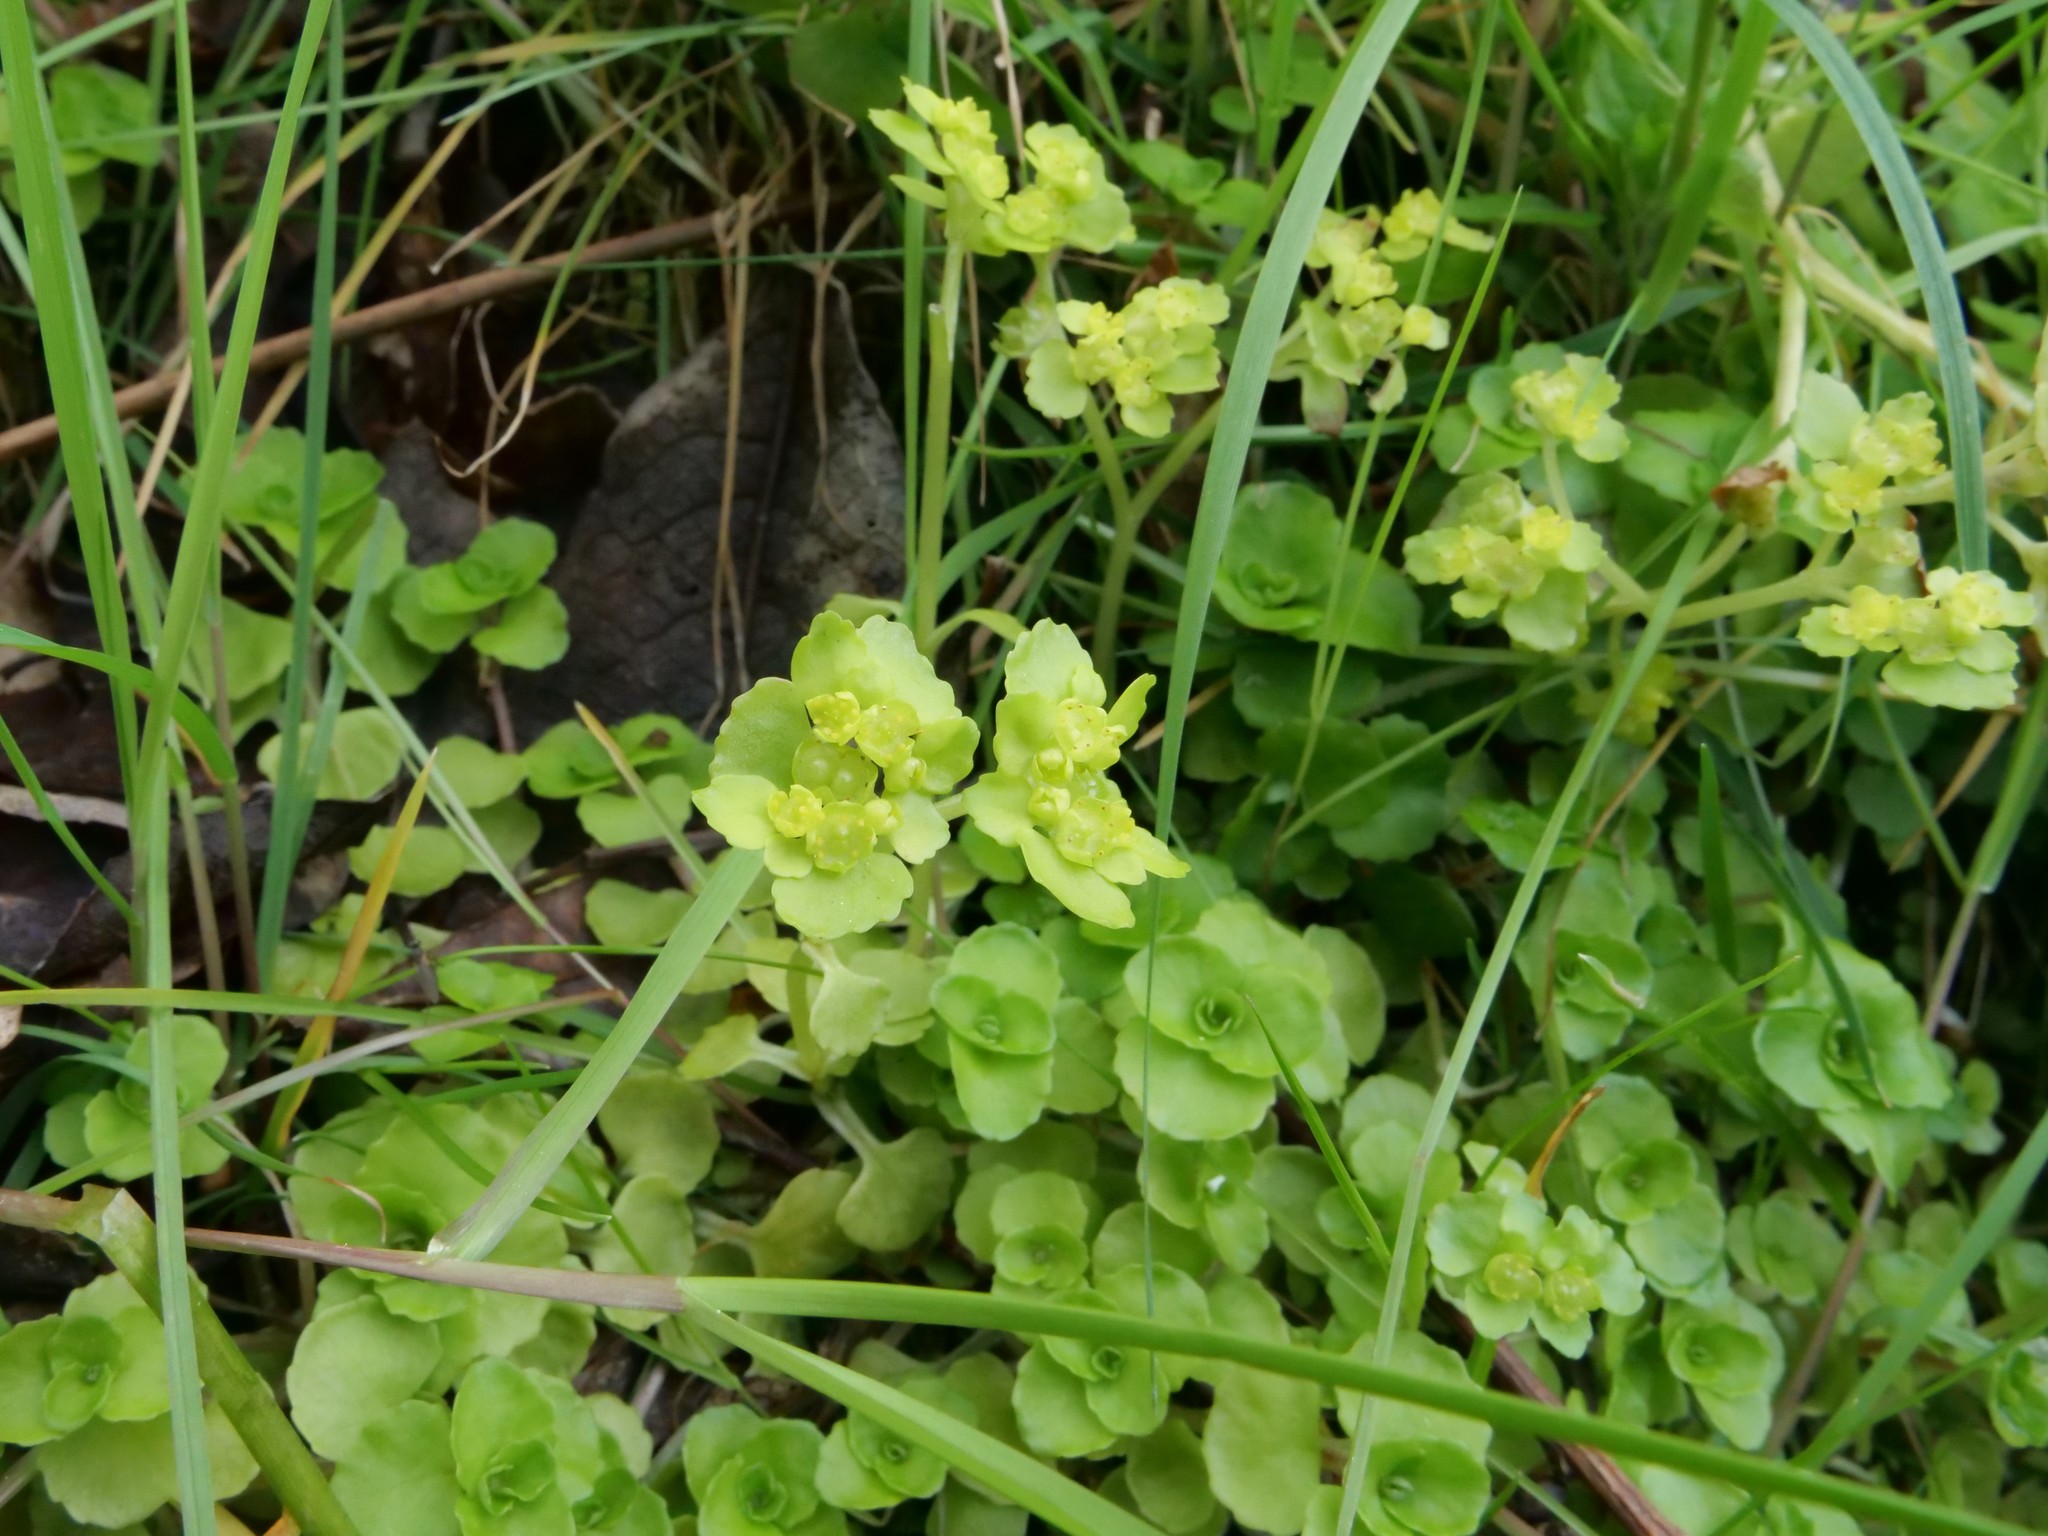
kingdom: Plantae
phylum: Tracheophyta
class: Magnoliopsida
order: Saxifragales
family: Saxifragaceae
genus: Chrysosplenium
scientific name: Chrysosplenium oppositifolium
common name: Opposite-leaved golden-saxifrage
